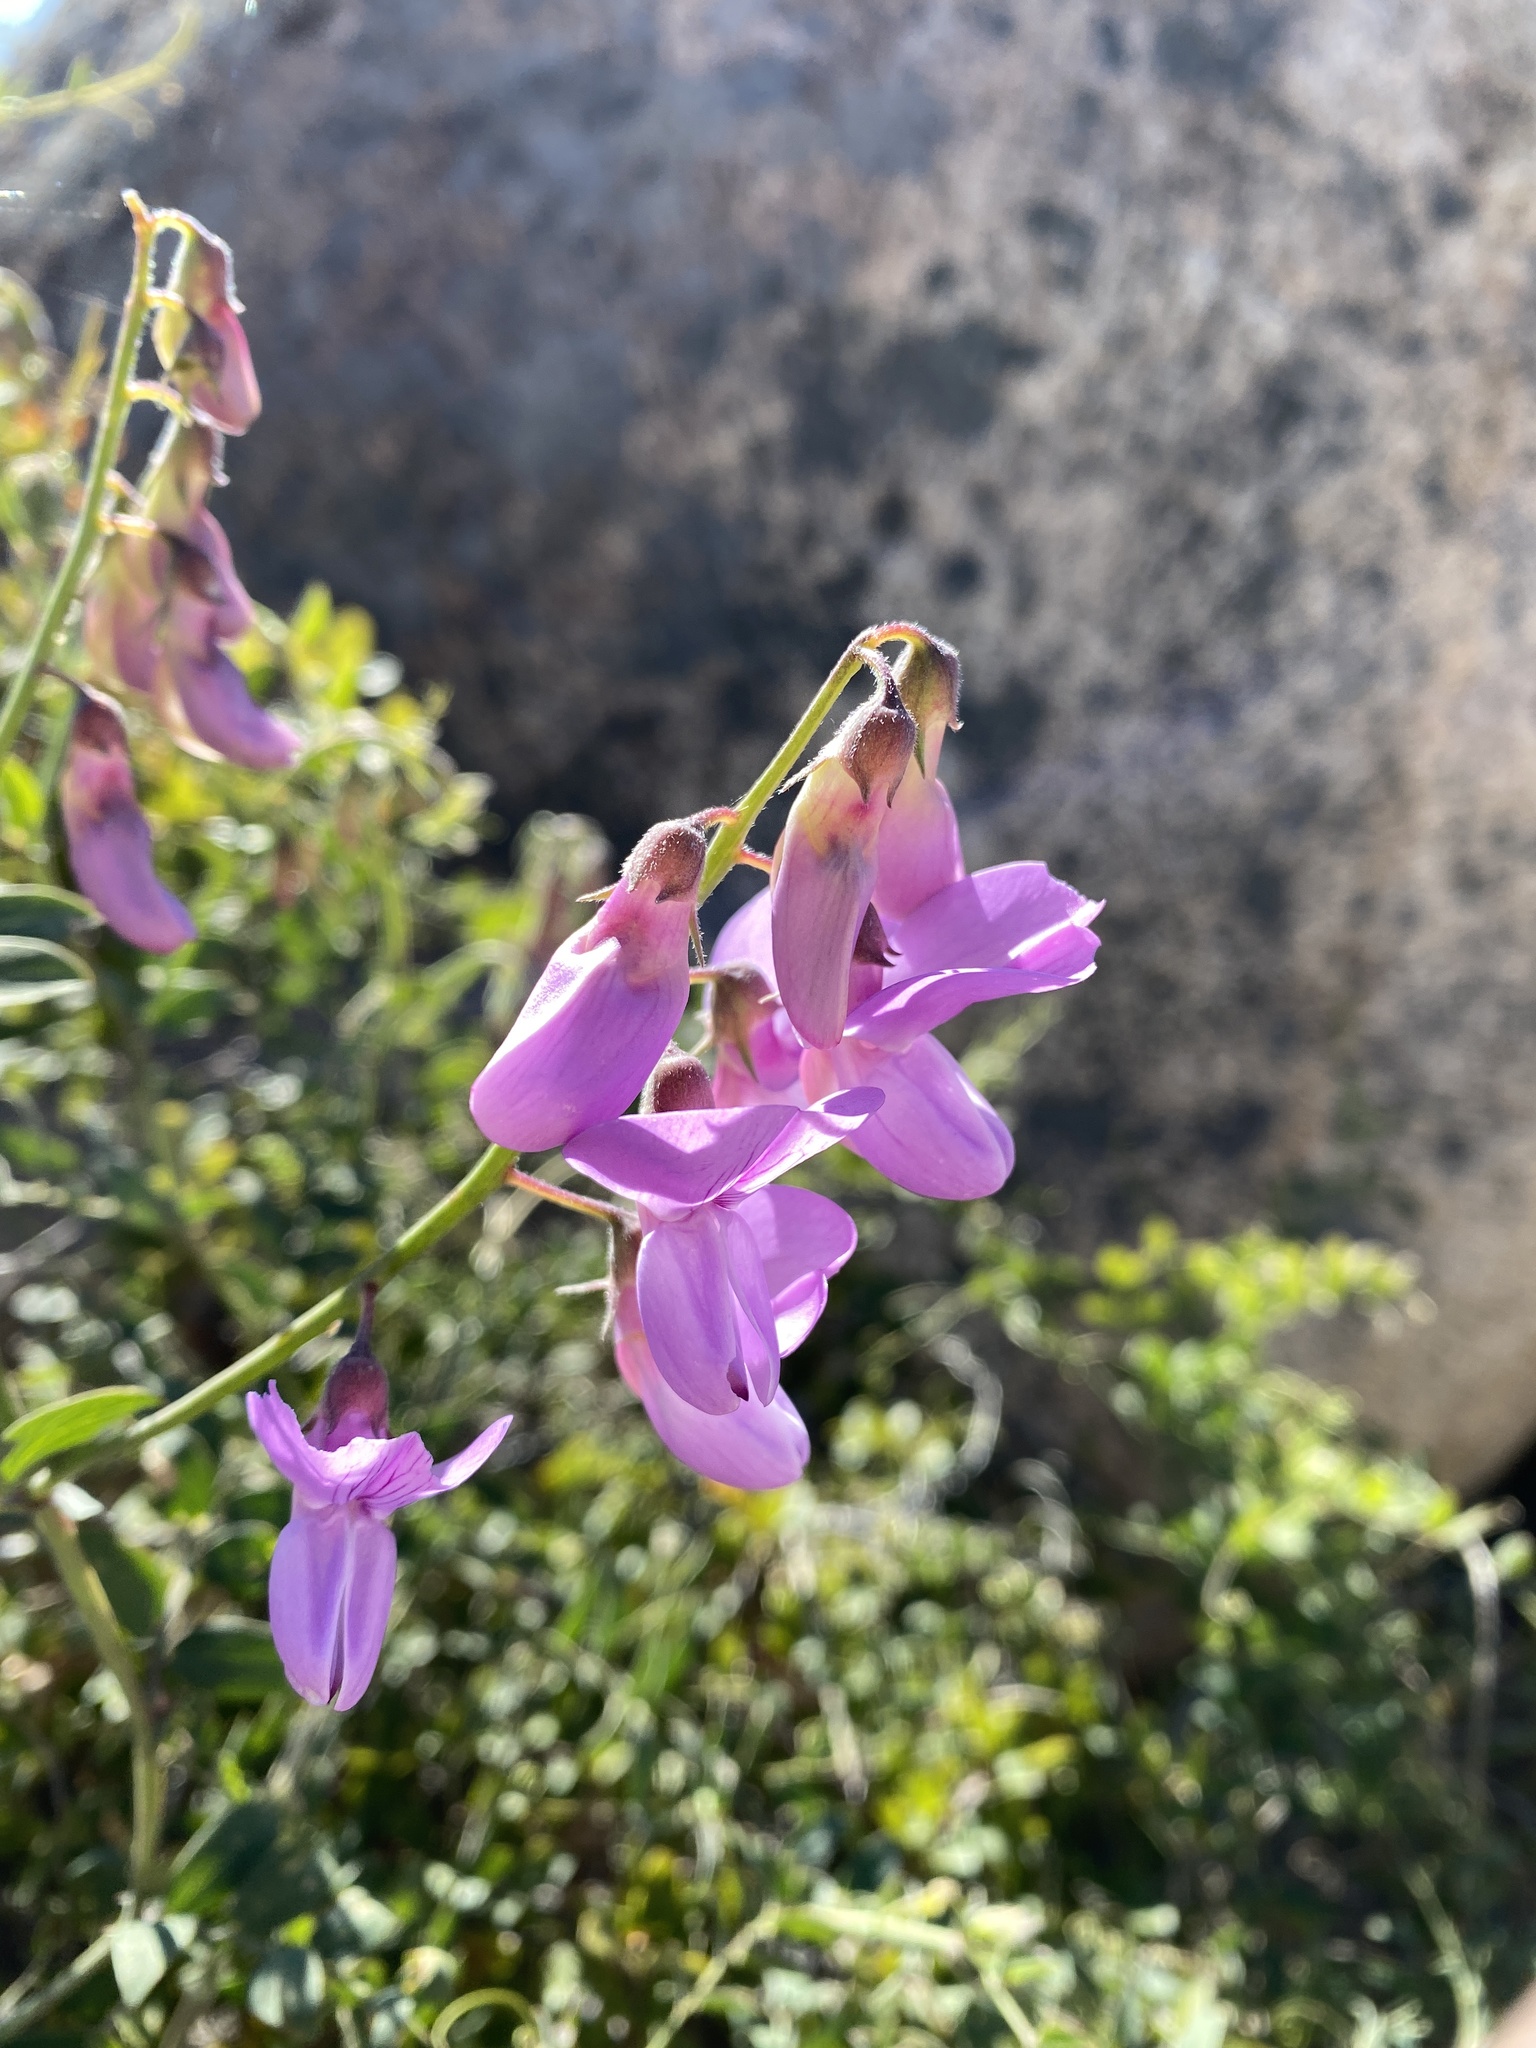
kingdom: Plantae
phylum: Tracheophyta
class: Magnoliopsida
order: Fabales
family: Fabaceae
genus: Lathyrus
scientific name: Lathyrus vestitus
